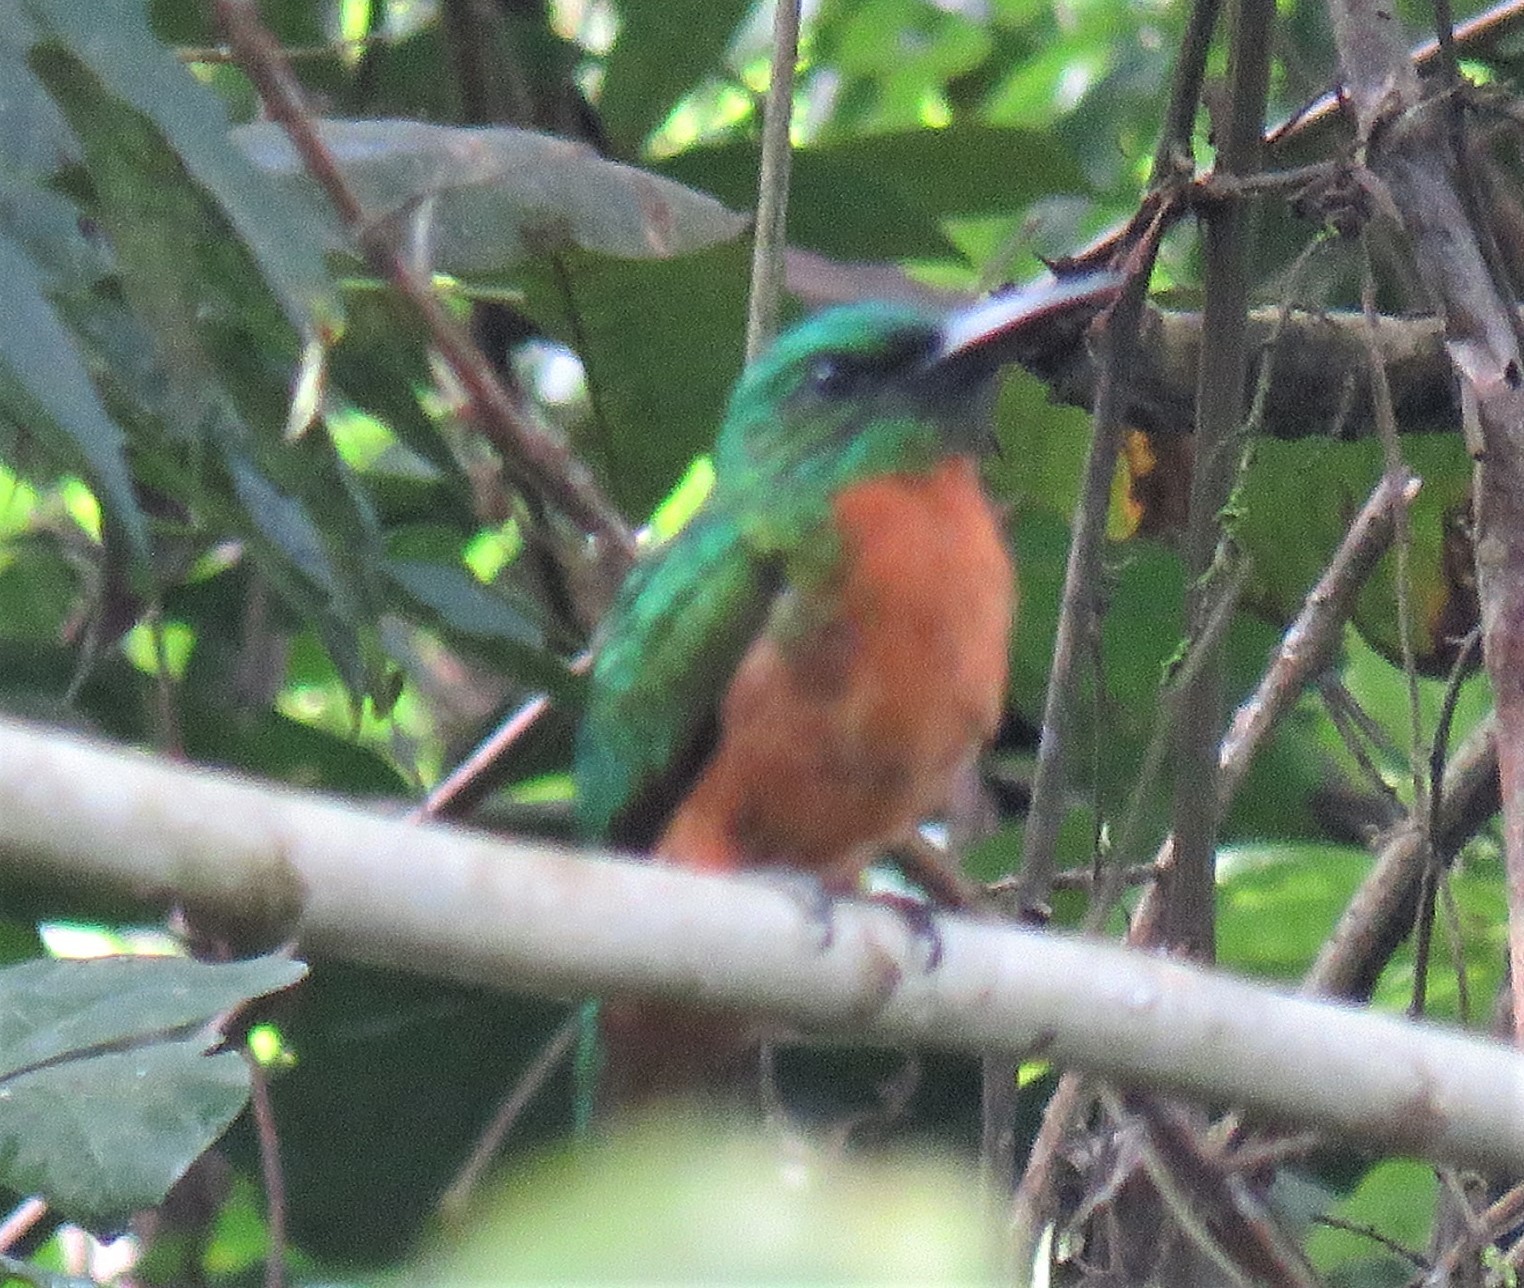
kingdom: Animalia
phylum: Chordata
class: Aves
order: Piciformes
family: Galbulidae
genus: Jacamerops
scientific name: Jacamerops aureus
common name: Great jacamar
